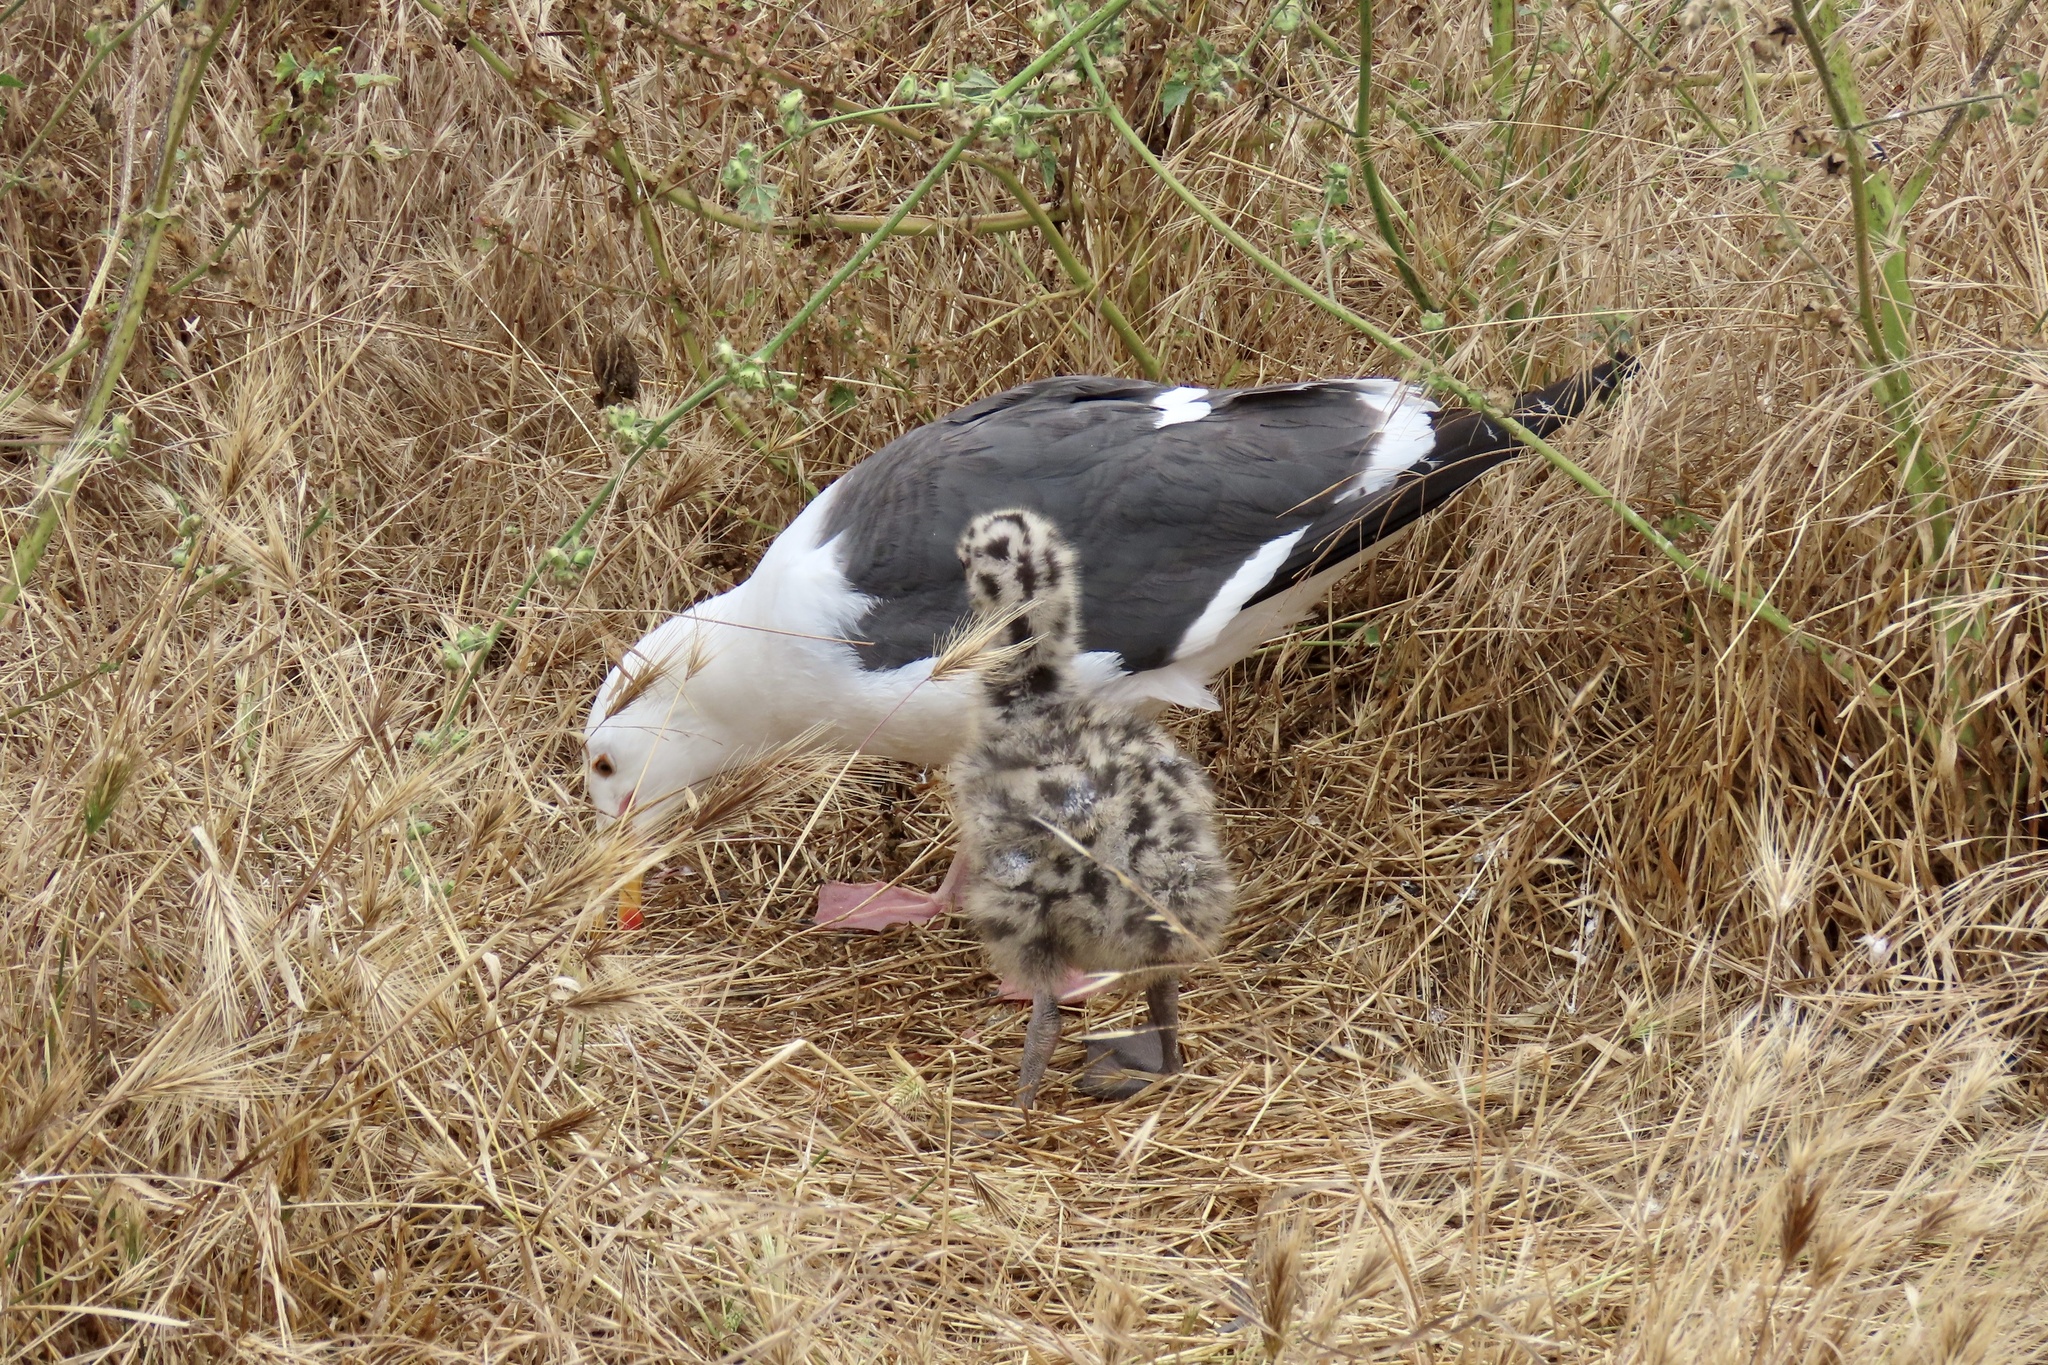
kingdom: Animalia
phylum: Chordata
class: Aves
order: Charadriiformes
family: Laridae
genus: Larus
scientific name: Larus occidentalis
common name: Western gull
